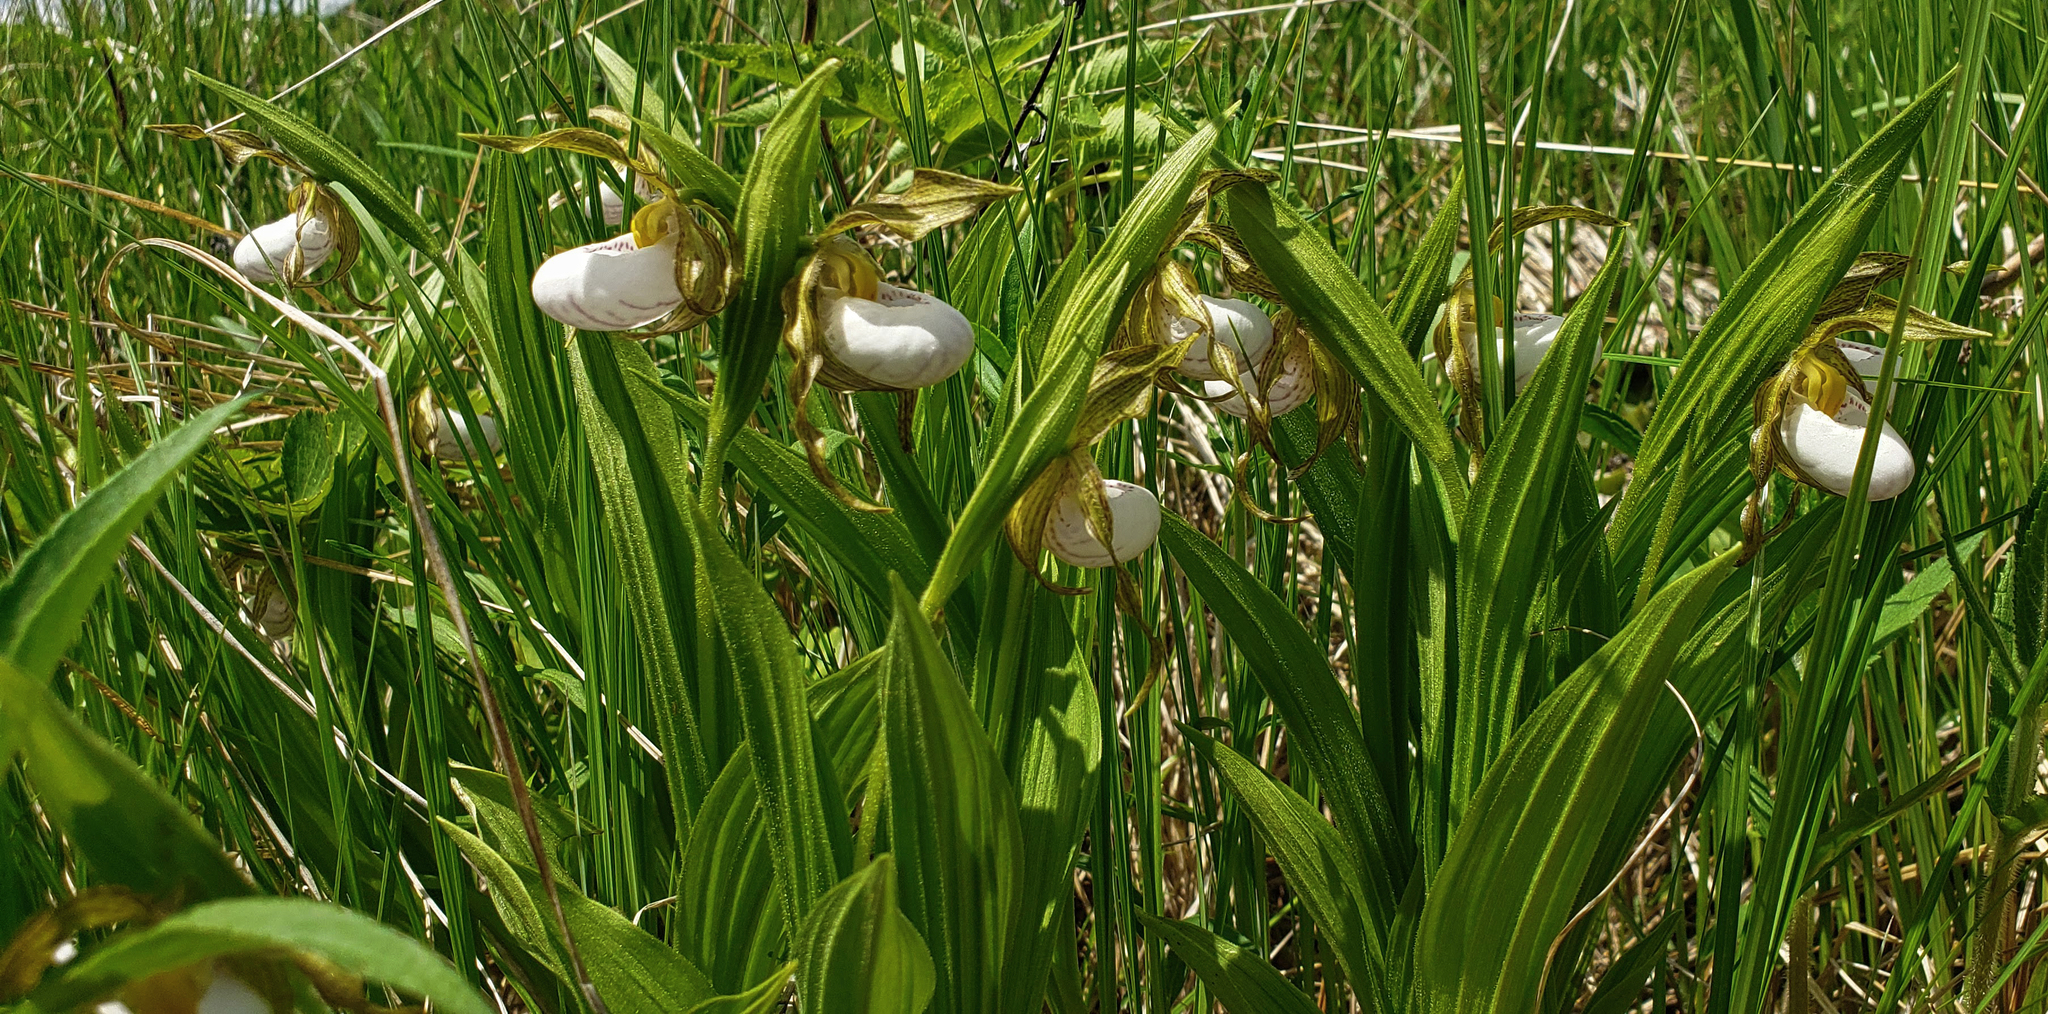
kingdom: Plantae
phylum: Tracheophyta
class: Liliopsida
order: Asparagales
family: Orchidaceae
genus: Cypripedium
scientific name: Cypripedium candidum
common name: White lady's-slipper
